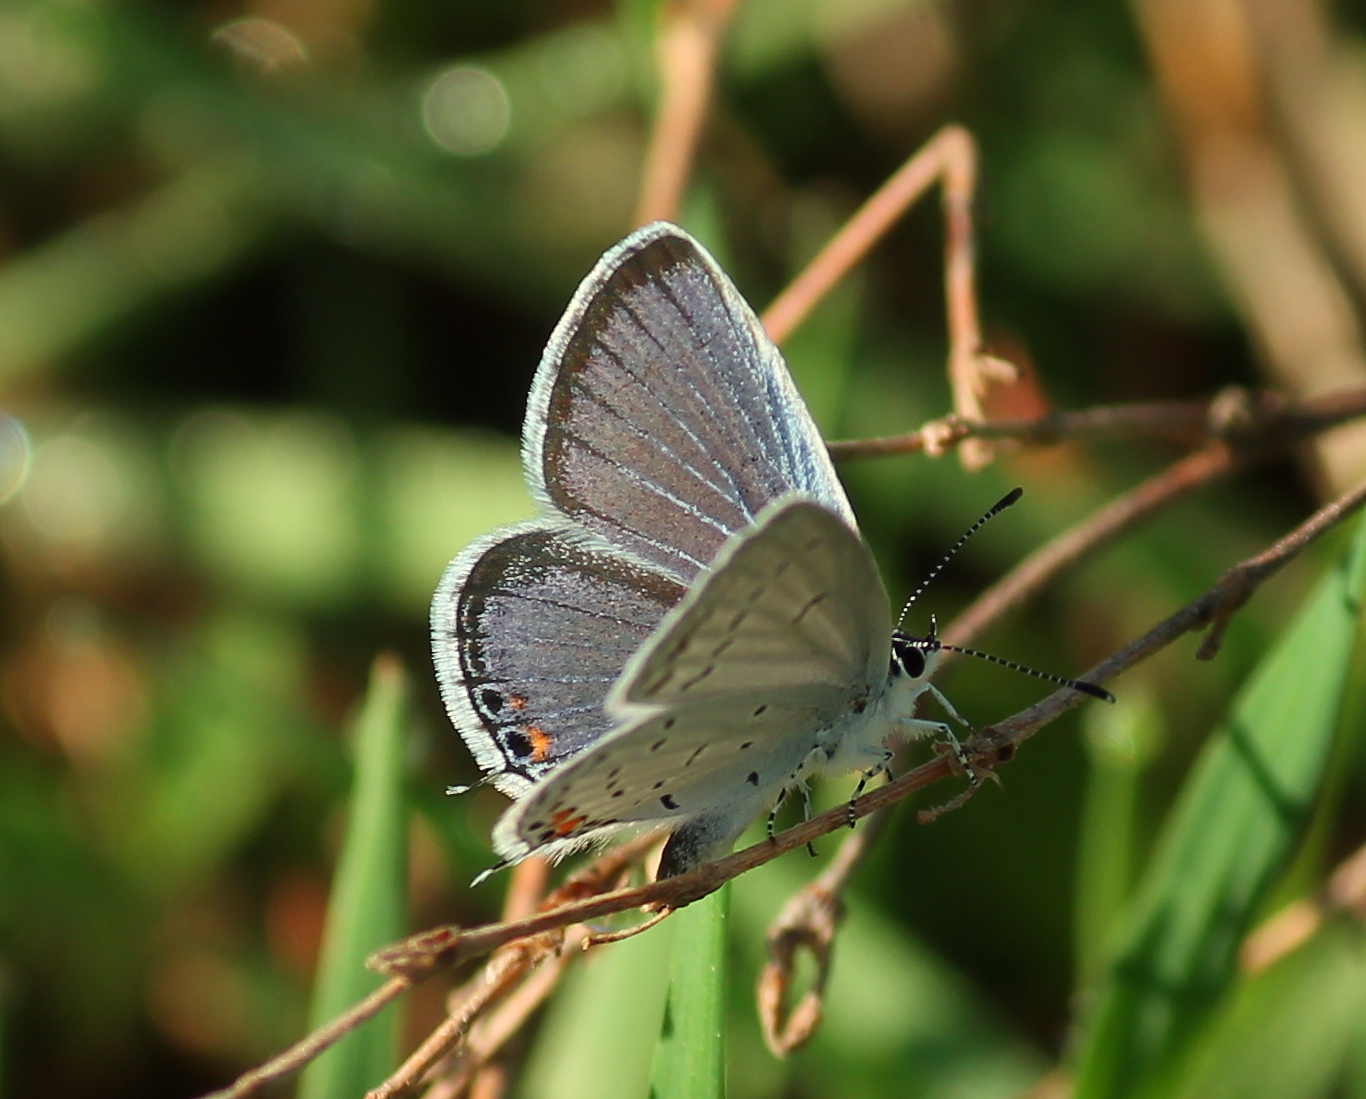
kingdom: Animalia
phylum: Arthropoda
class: Insecta
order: Lepidoptera
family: Lycaenidae
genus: Elkalyce
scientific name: Elkalyce comyntas
